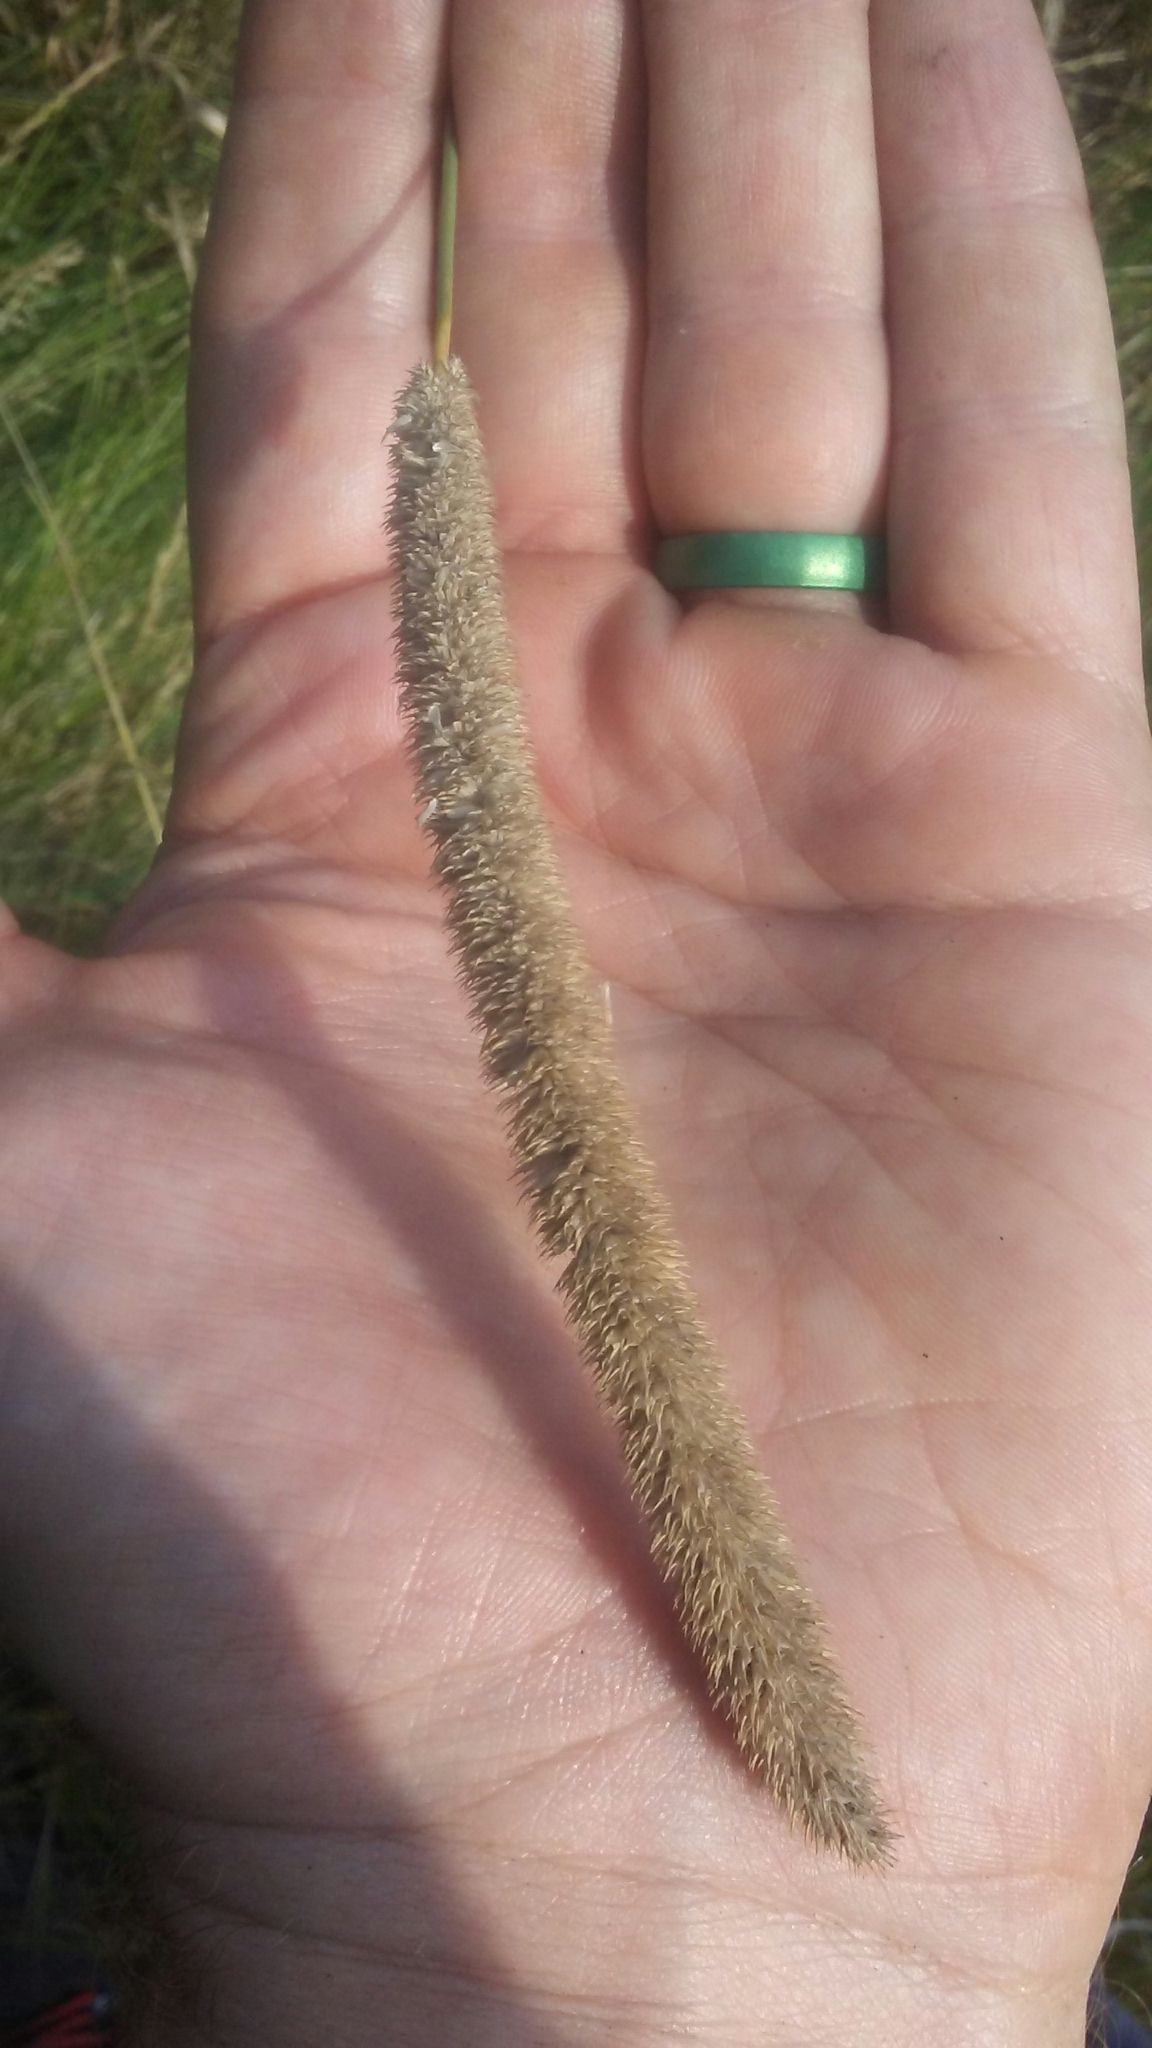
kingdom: Plantae
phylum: Tracheophyta
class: Liliopsida
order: Poales
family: Poaceae
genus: Phleum
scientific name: Phleum pratense
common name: Timothy grass
